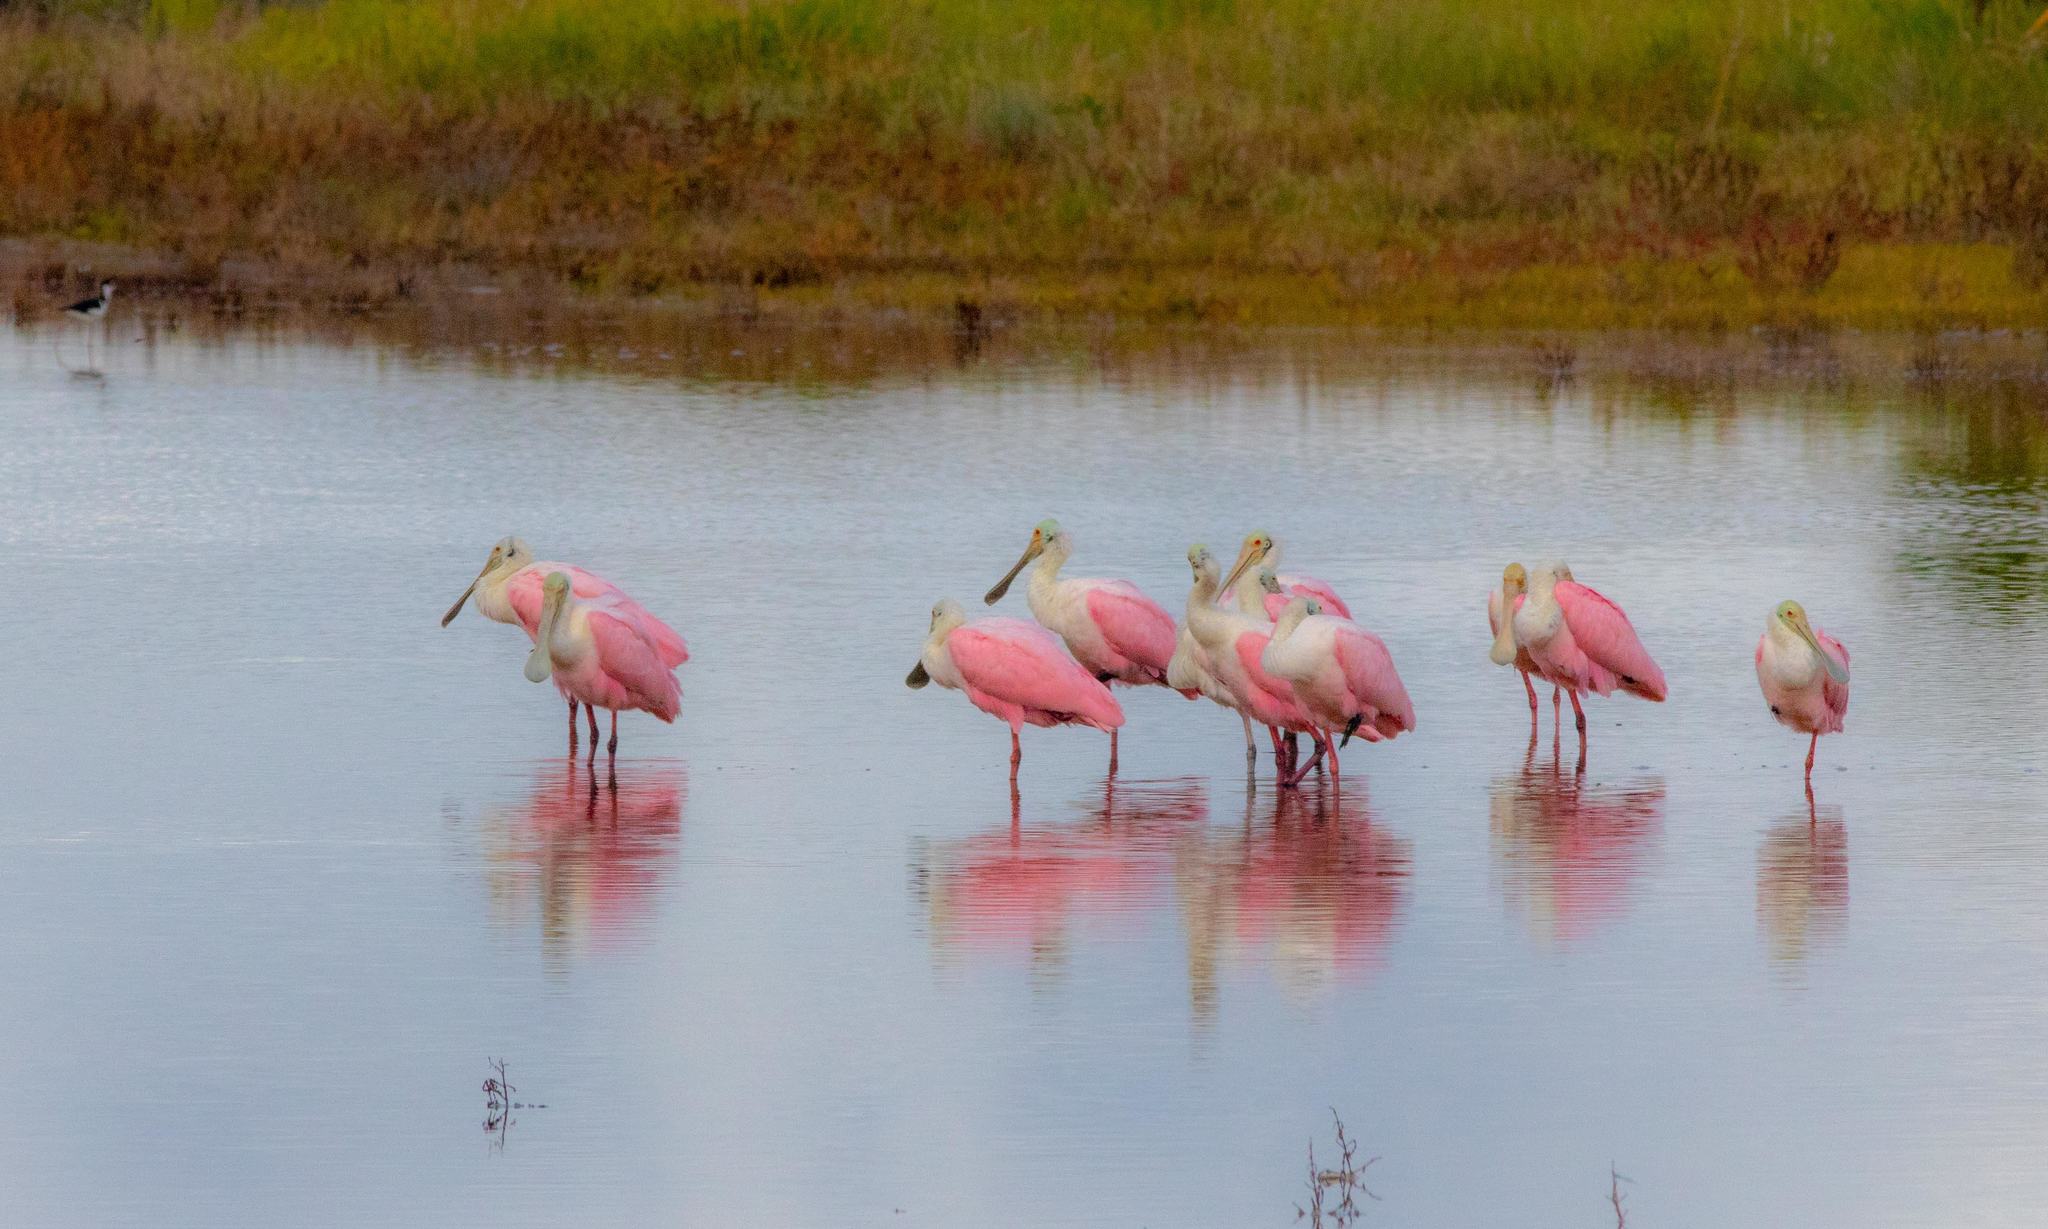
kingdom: Animalia
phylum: Chordata
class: Aves
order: Pelecaniformes
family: Threskiornithidae
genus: Platalea
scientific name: Platalea ajaja
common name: Roseate spoonbill
